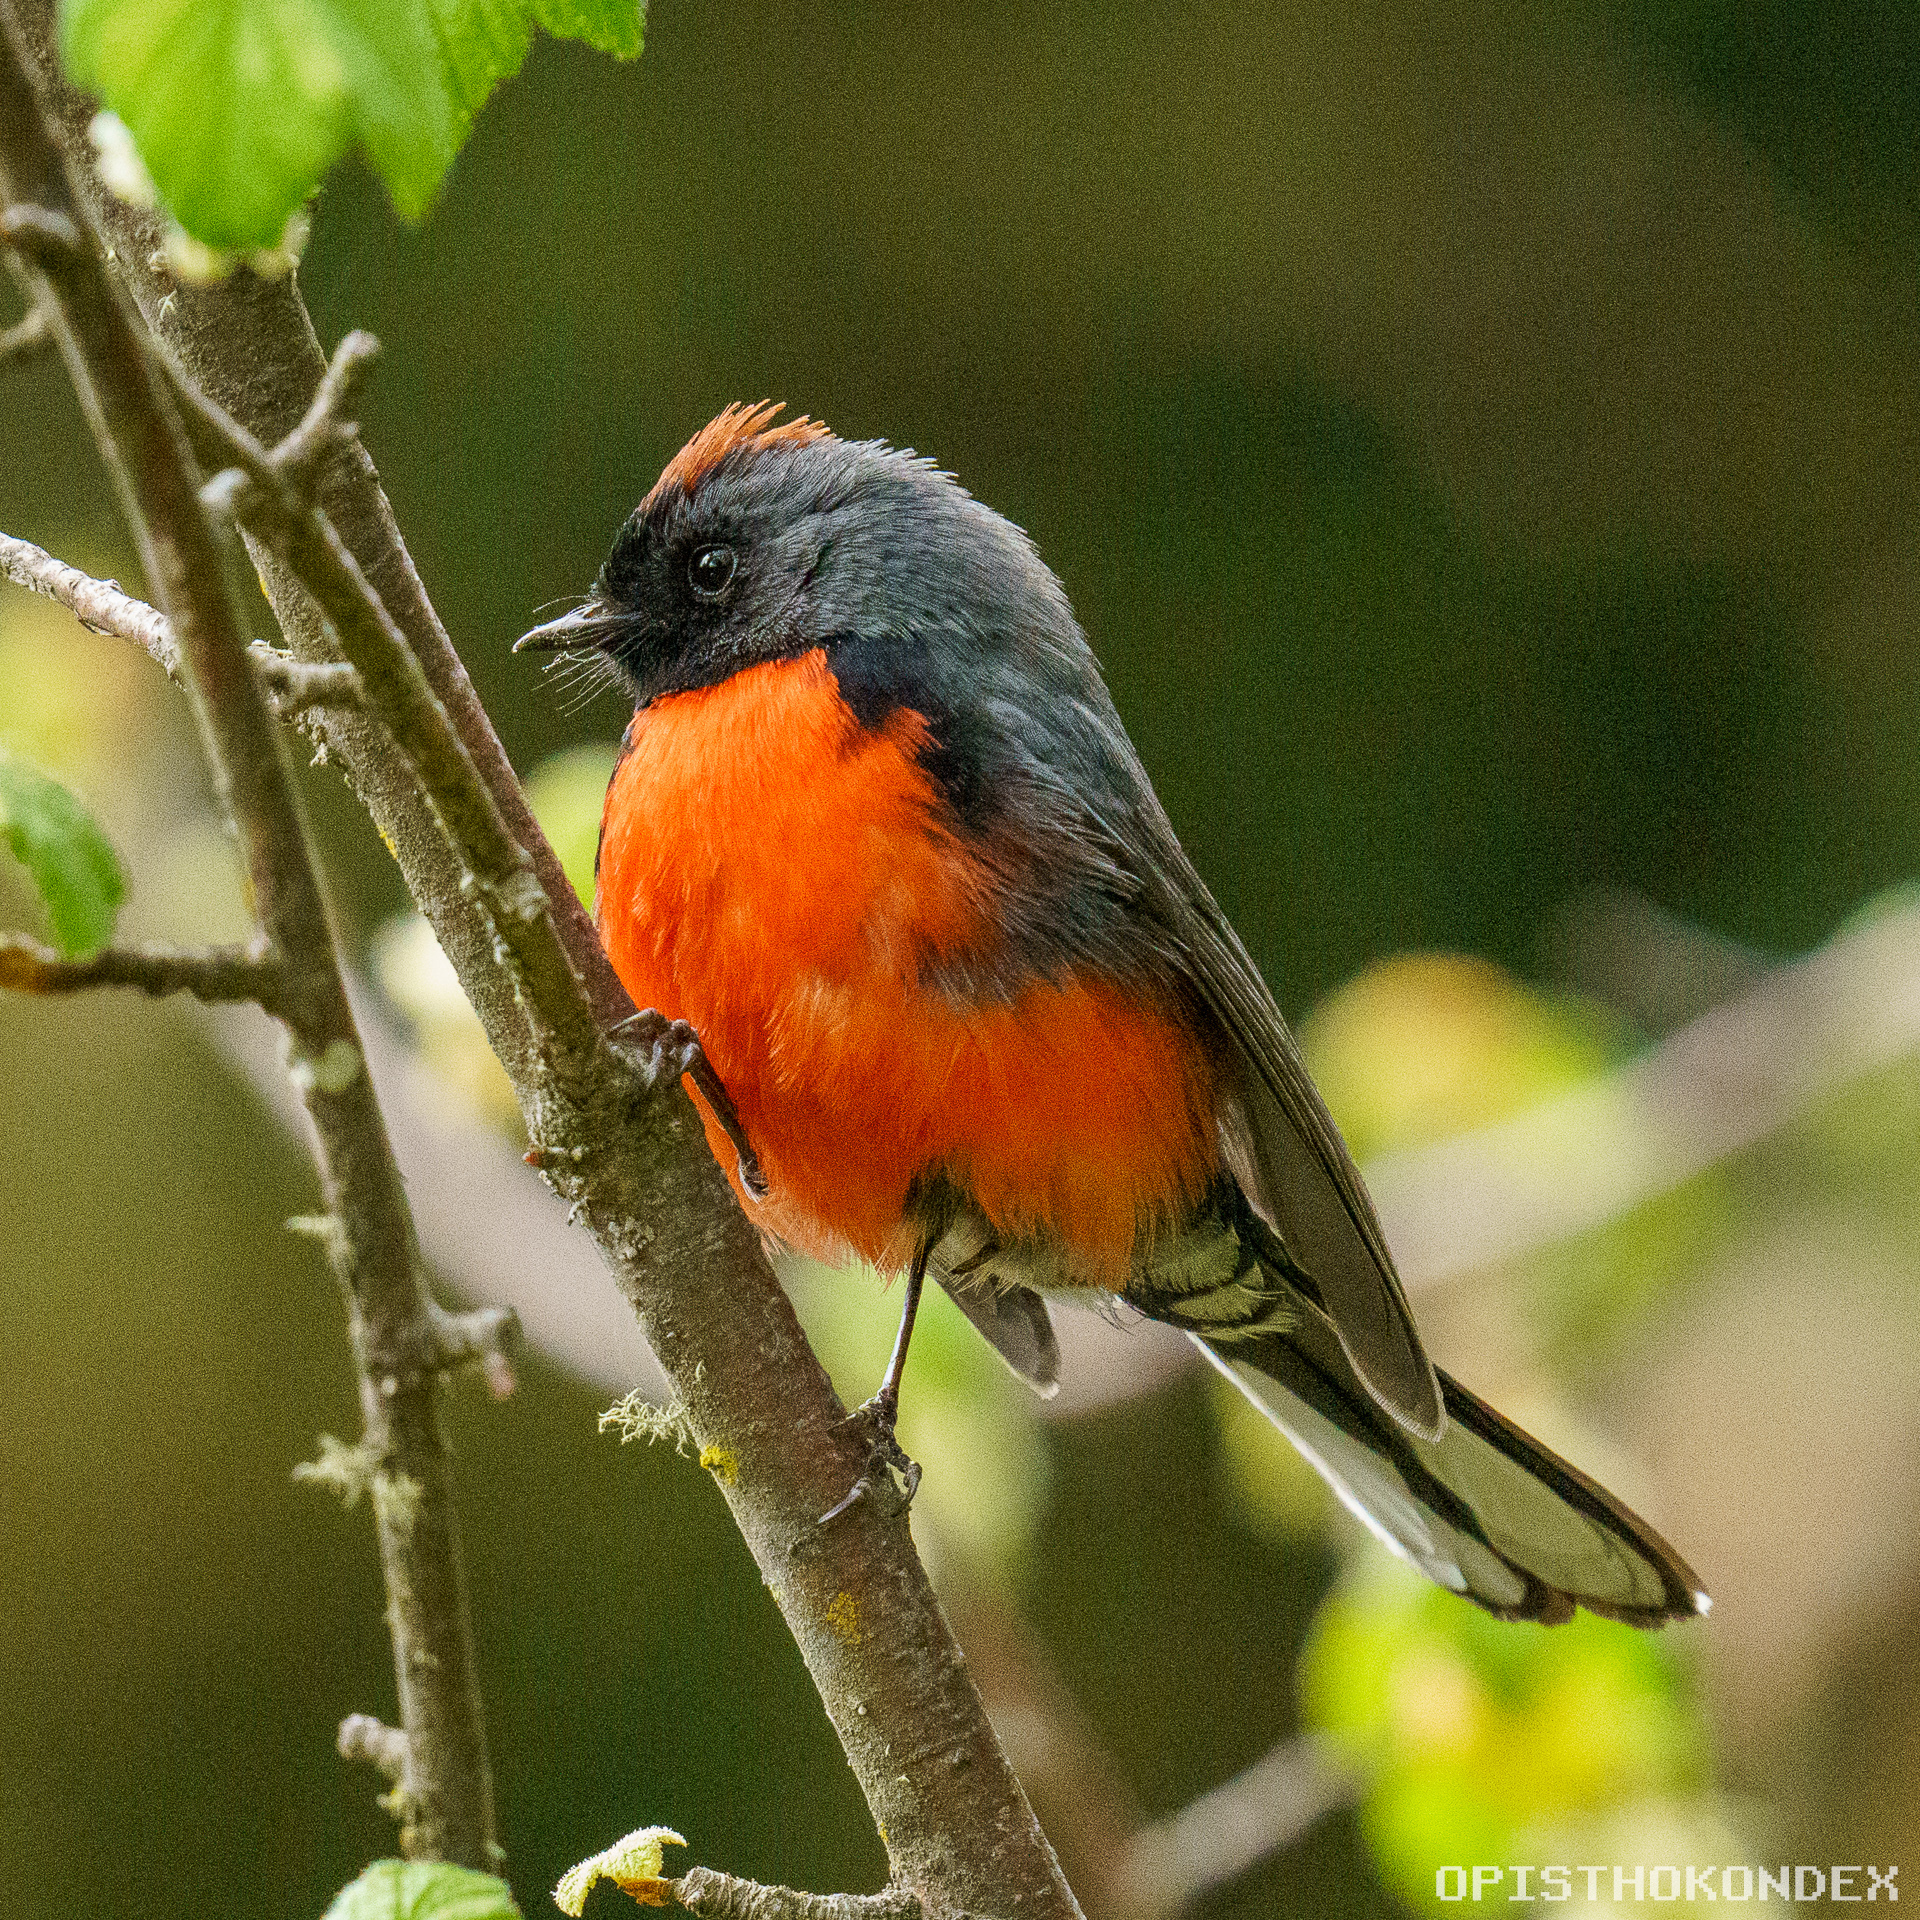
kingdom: Animalia
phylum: Chordata
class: Aves
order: Passeriformes
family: Parulidae
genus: Myioborus
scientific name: Myioborus miniatus
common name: Slate-throated redstart
